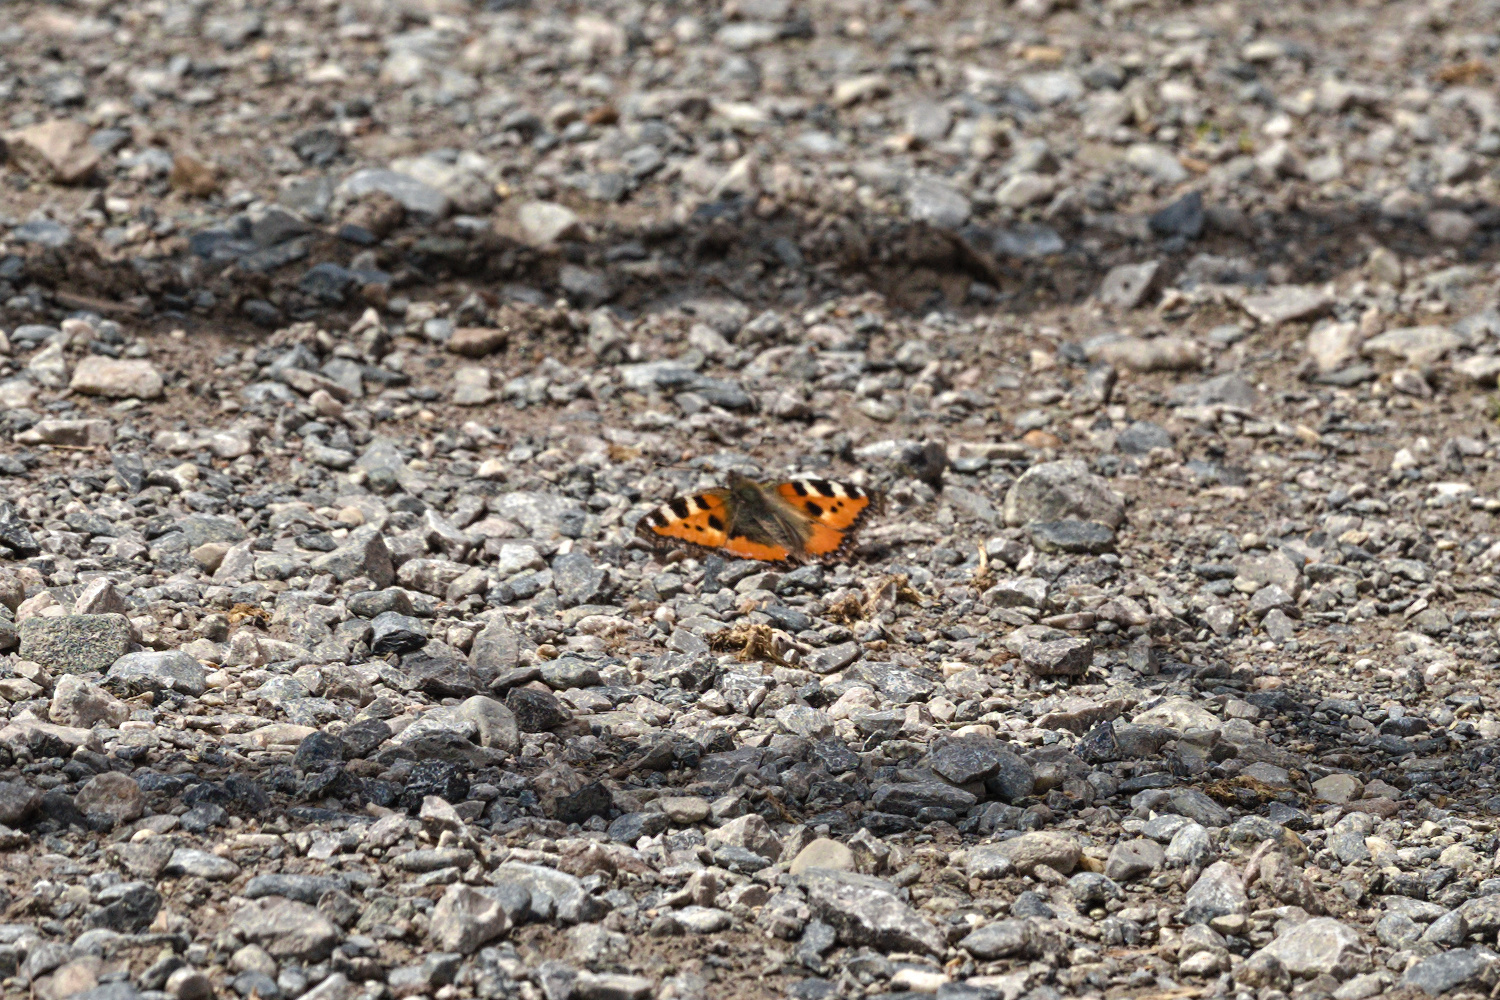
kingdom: Animalia
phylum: Arthropoda
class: Insecta
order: Lepidoptera
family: Nymphalidae
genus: Aglais
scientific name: Aglais urticae
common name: Small tortoiseshell
